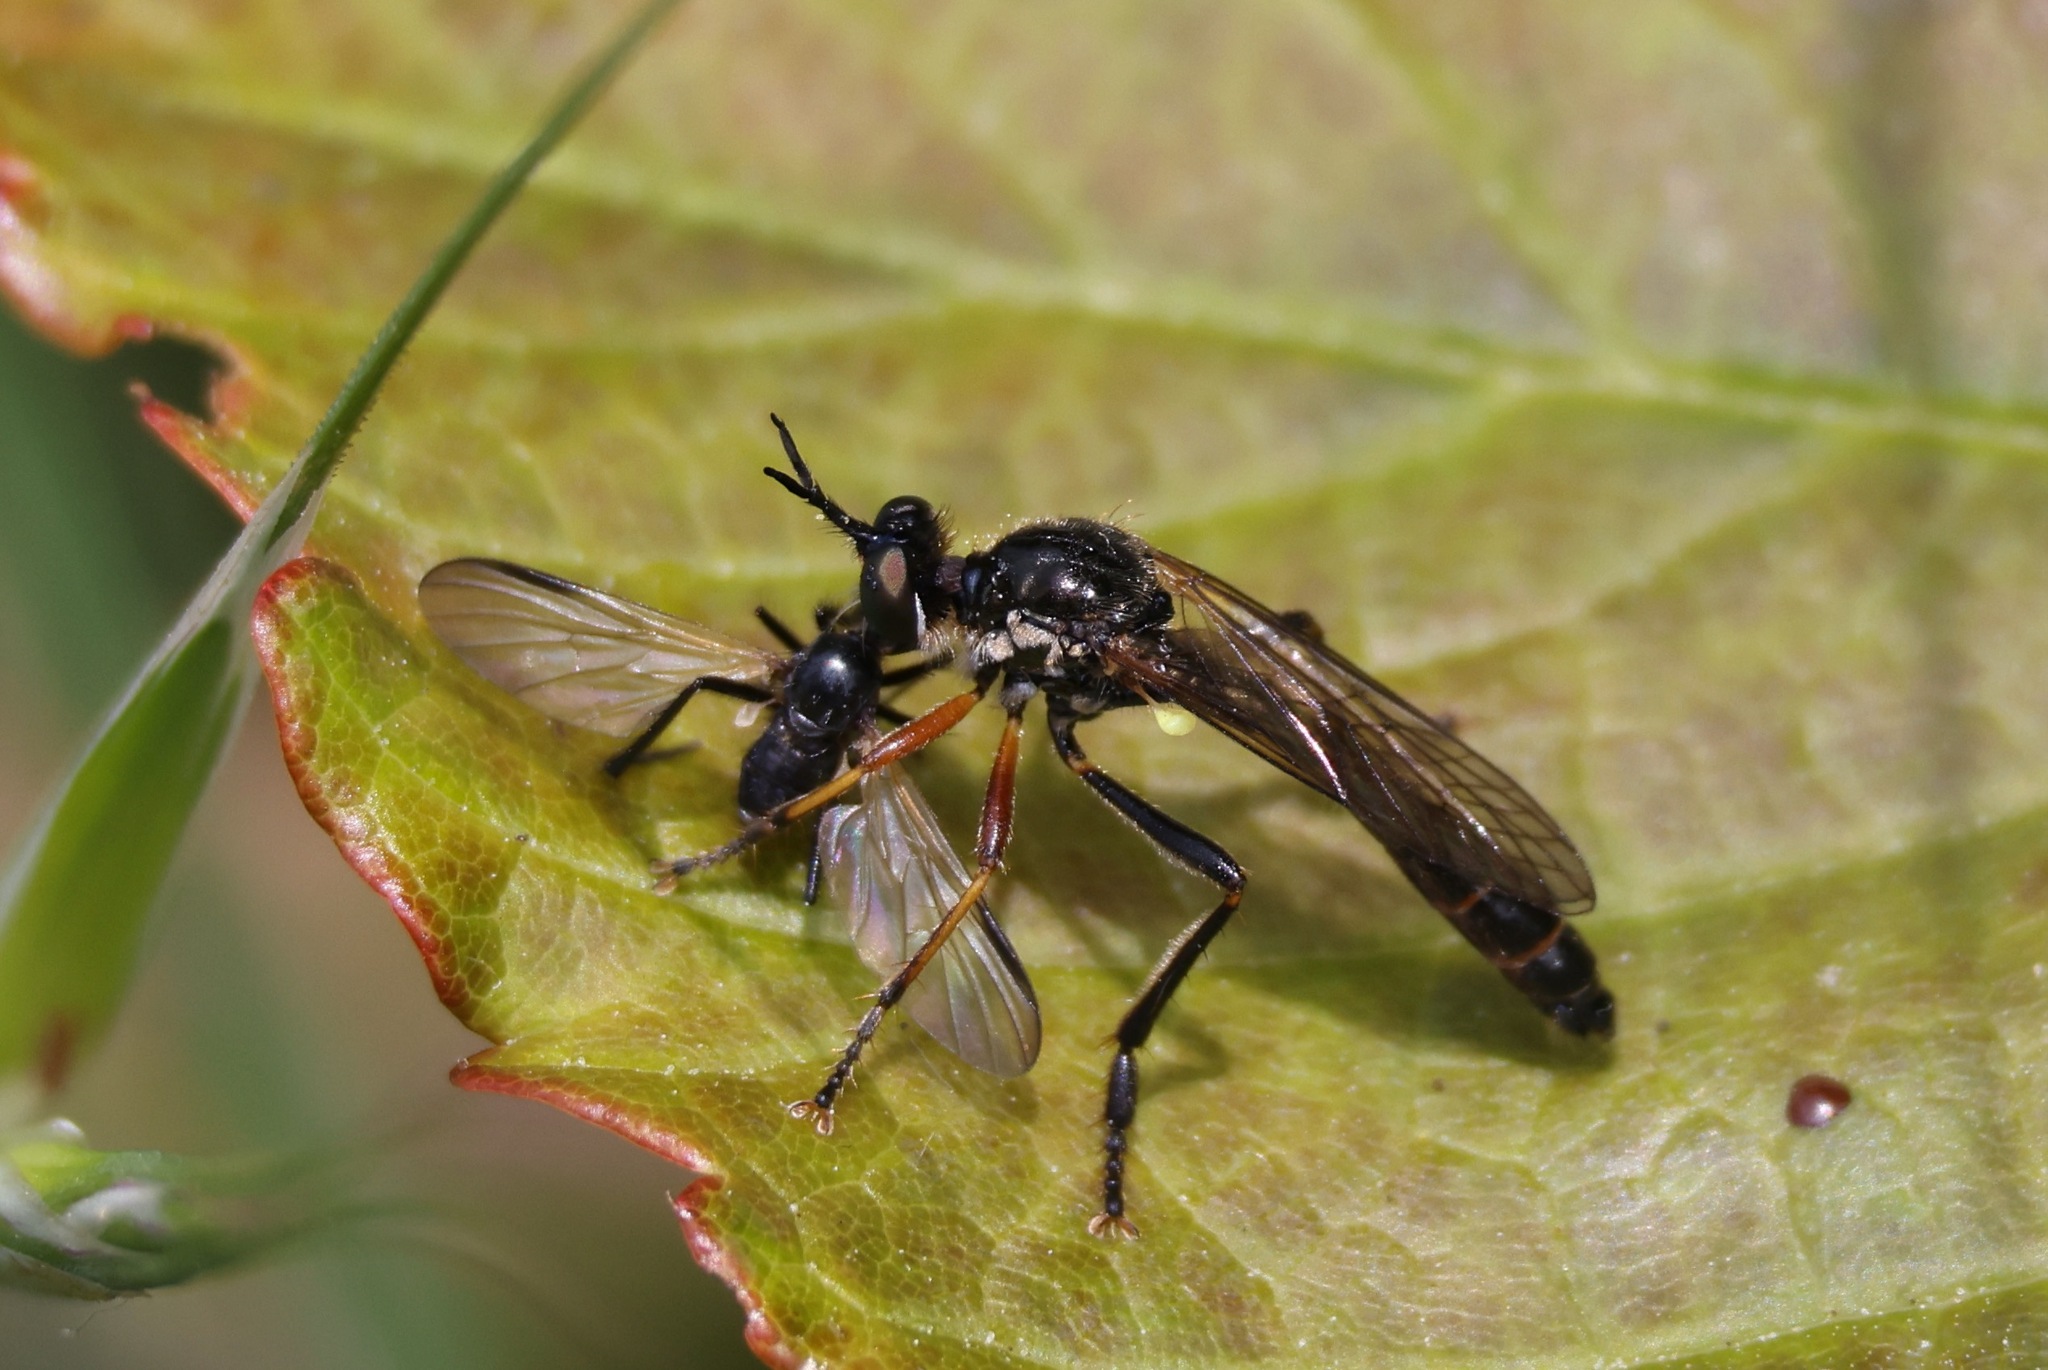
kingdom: Animalia
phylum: Arthropoda
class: Insecta
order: Diptera
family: Asilidae
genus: Dioctria
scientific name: Dioctria rufipes
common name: Common red-legged robberfly
